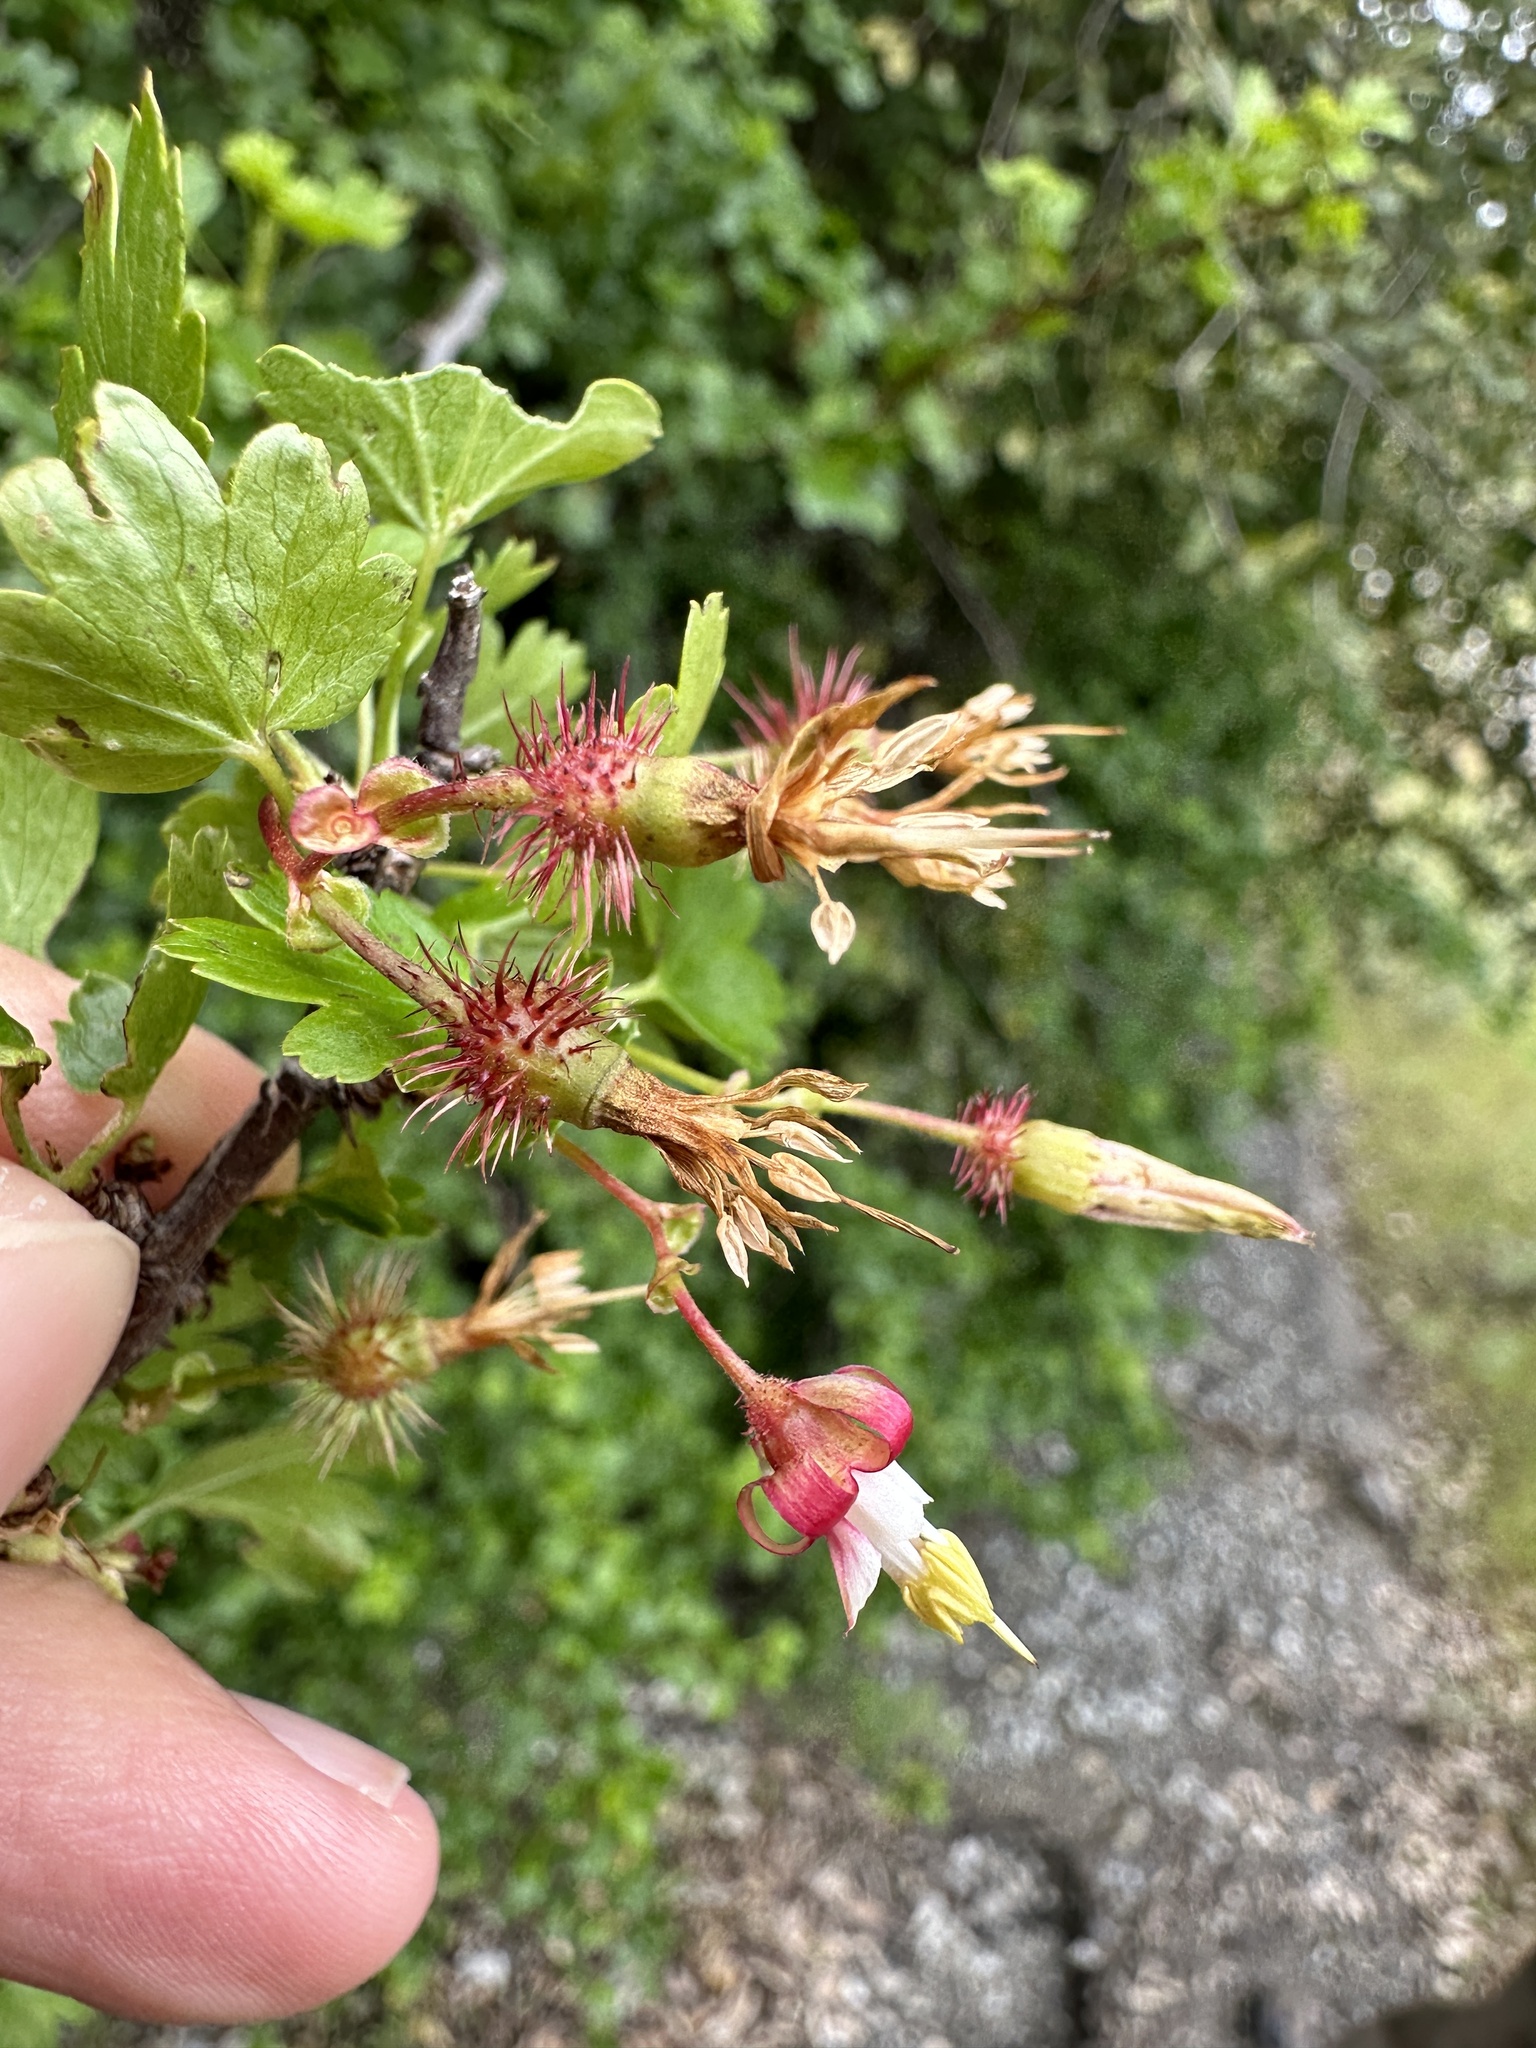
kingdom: Plantae
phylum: Tracheophyta
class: Magnoliopsida
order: Saxifragales
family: Grossulariaceae
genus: Ribes
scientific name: Ribes californicum
